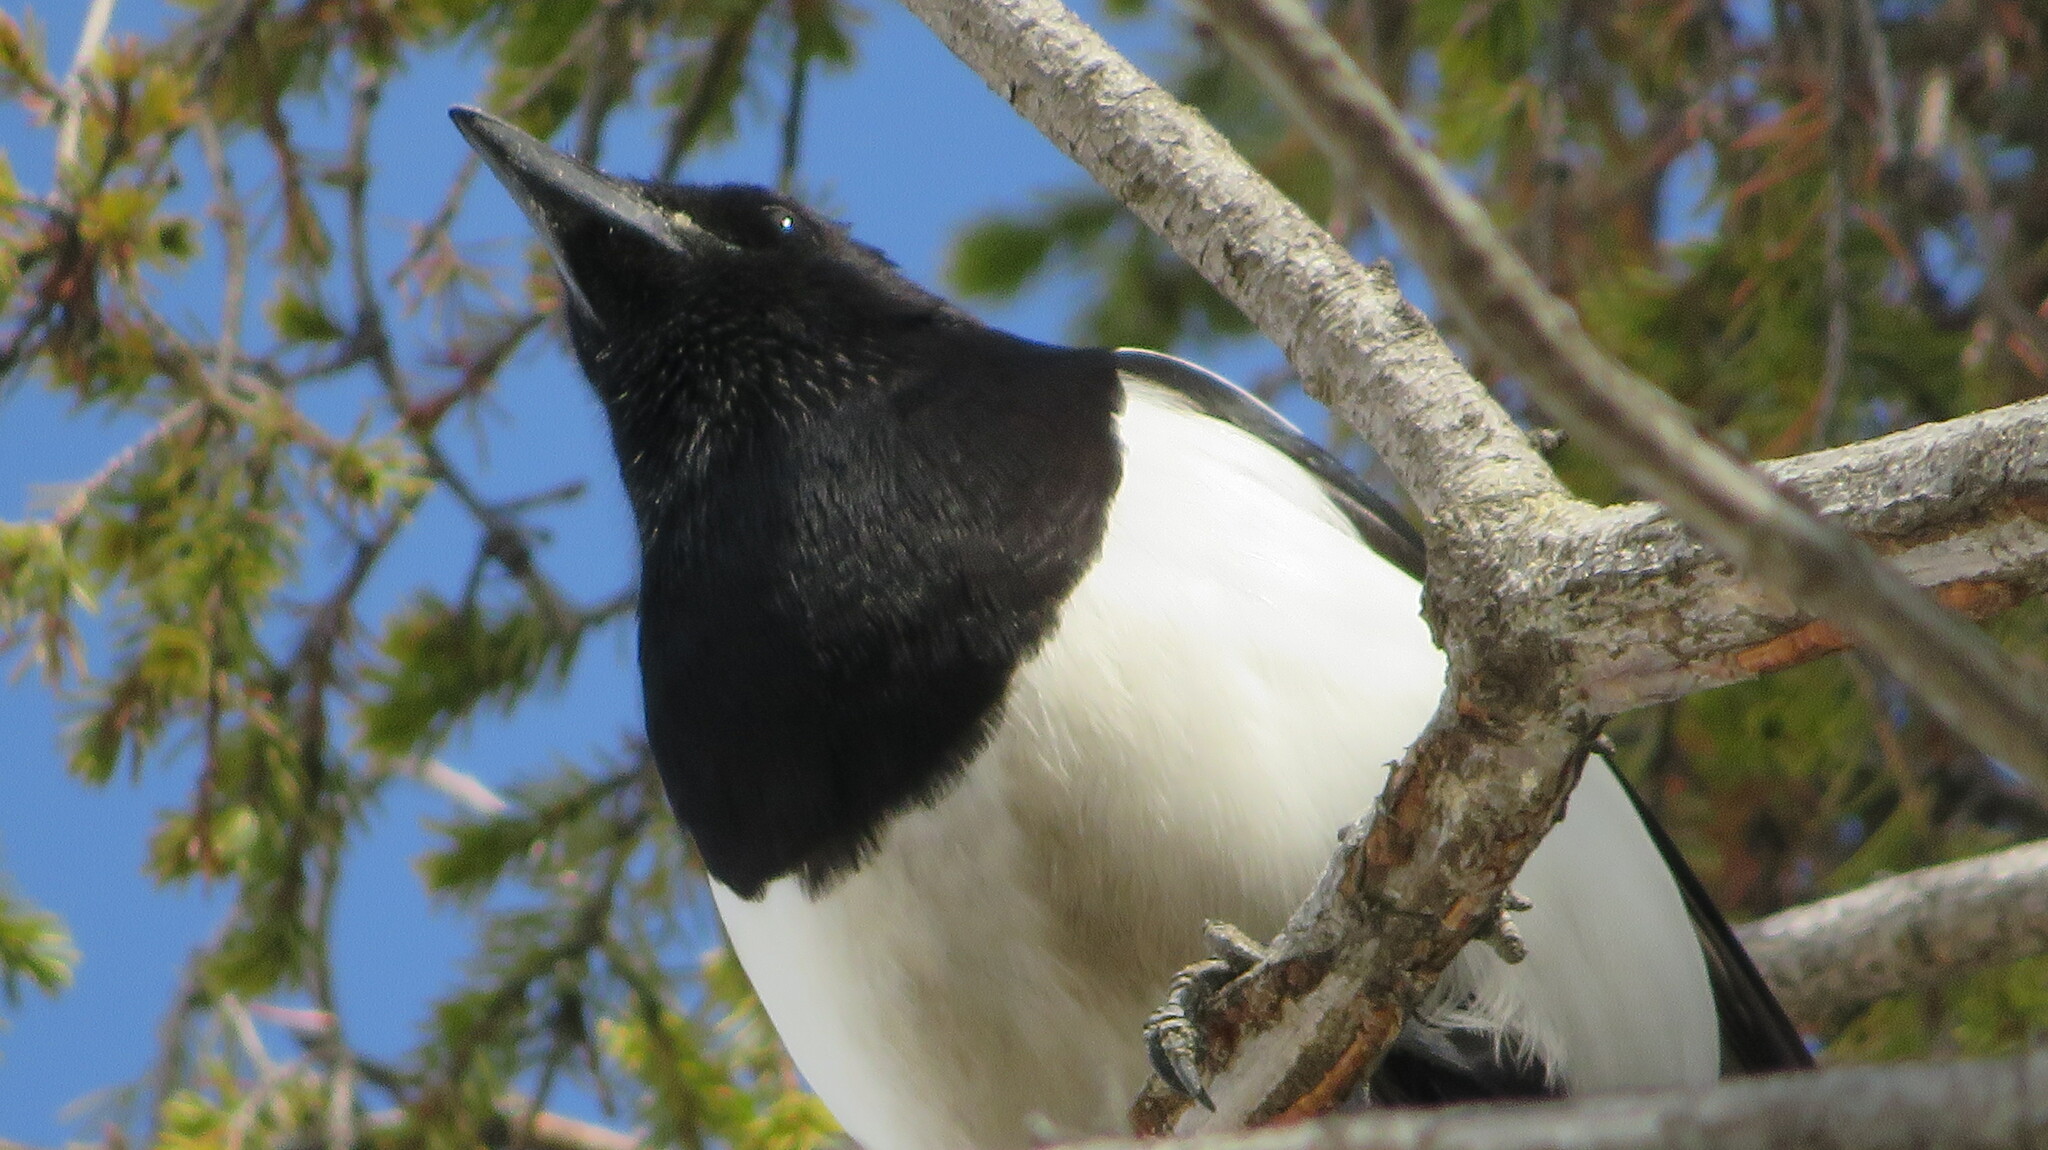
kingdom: Animalia
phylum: Chordata
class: Aves
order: Passeriformes
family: Corvidae
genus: Pica
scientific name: Pica pica
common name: Eurasian magpie
